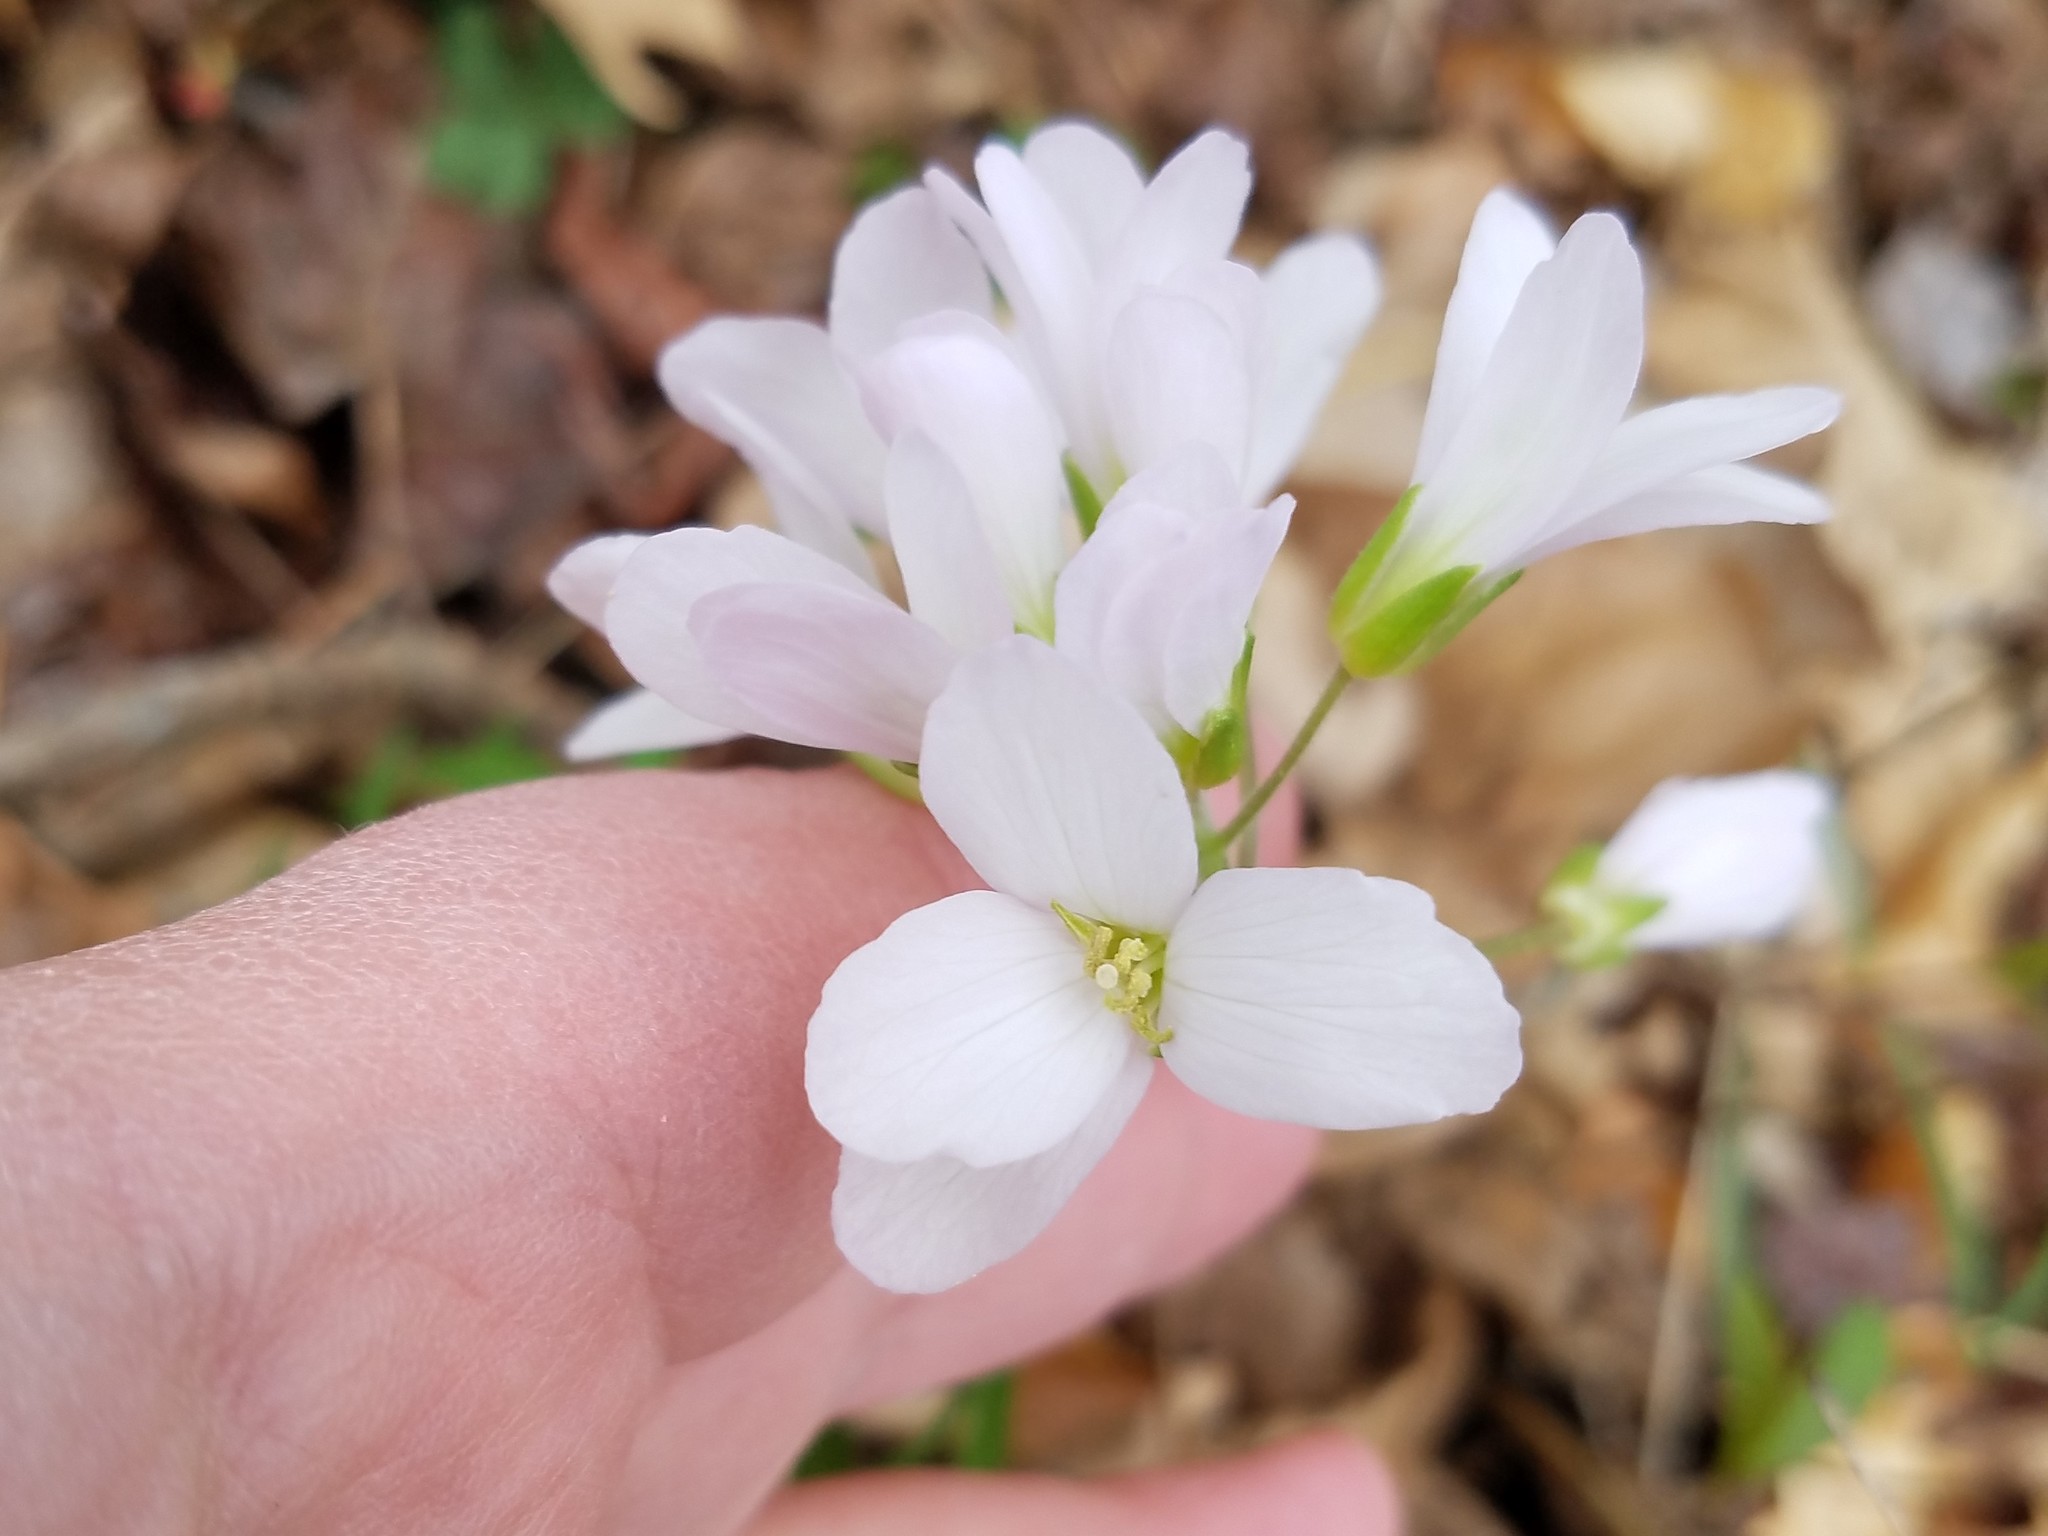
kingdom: Plantae
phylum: Tracheophyta
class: Magnoliopsida
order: Brassicales
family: Brassicaceae
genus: Cardamine
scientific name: Cardamine concatenata
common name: Cut-leaf toothcup
